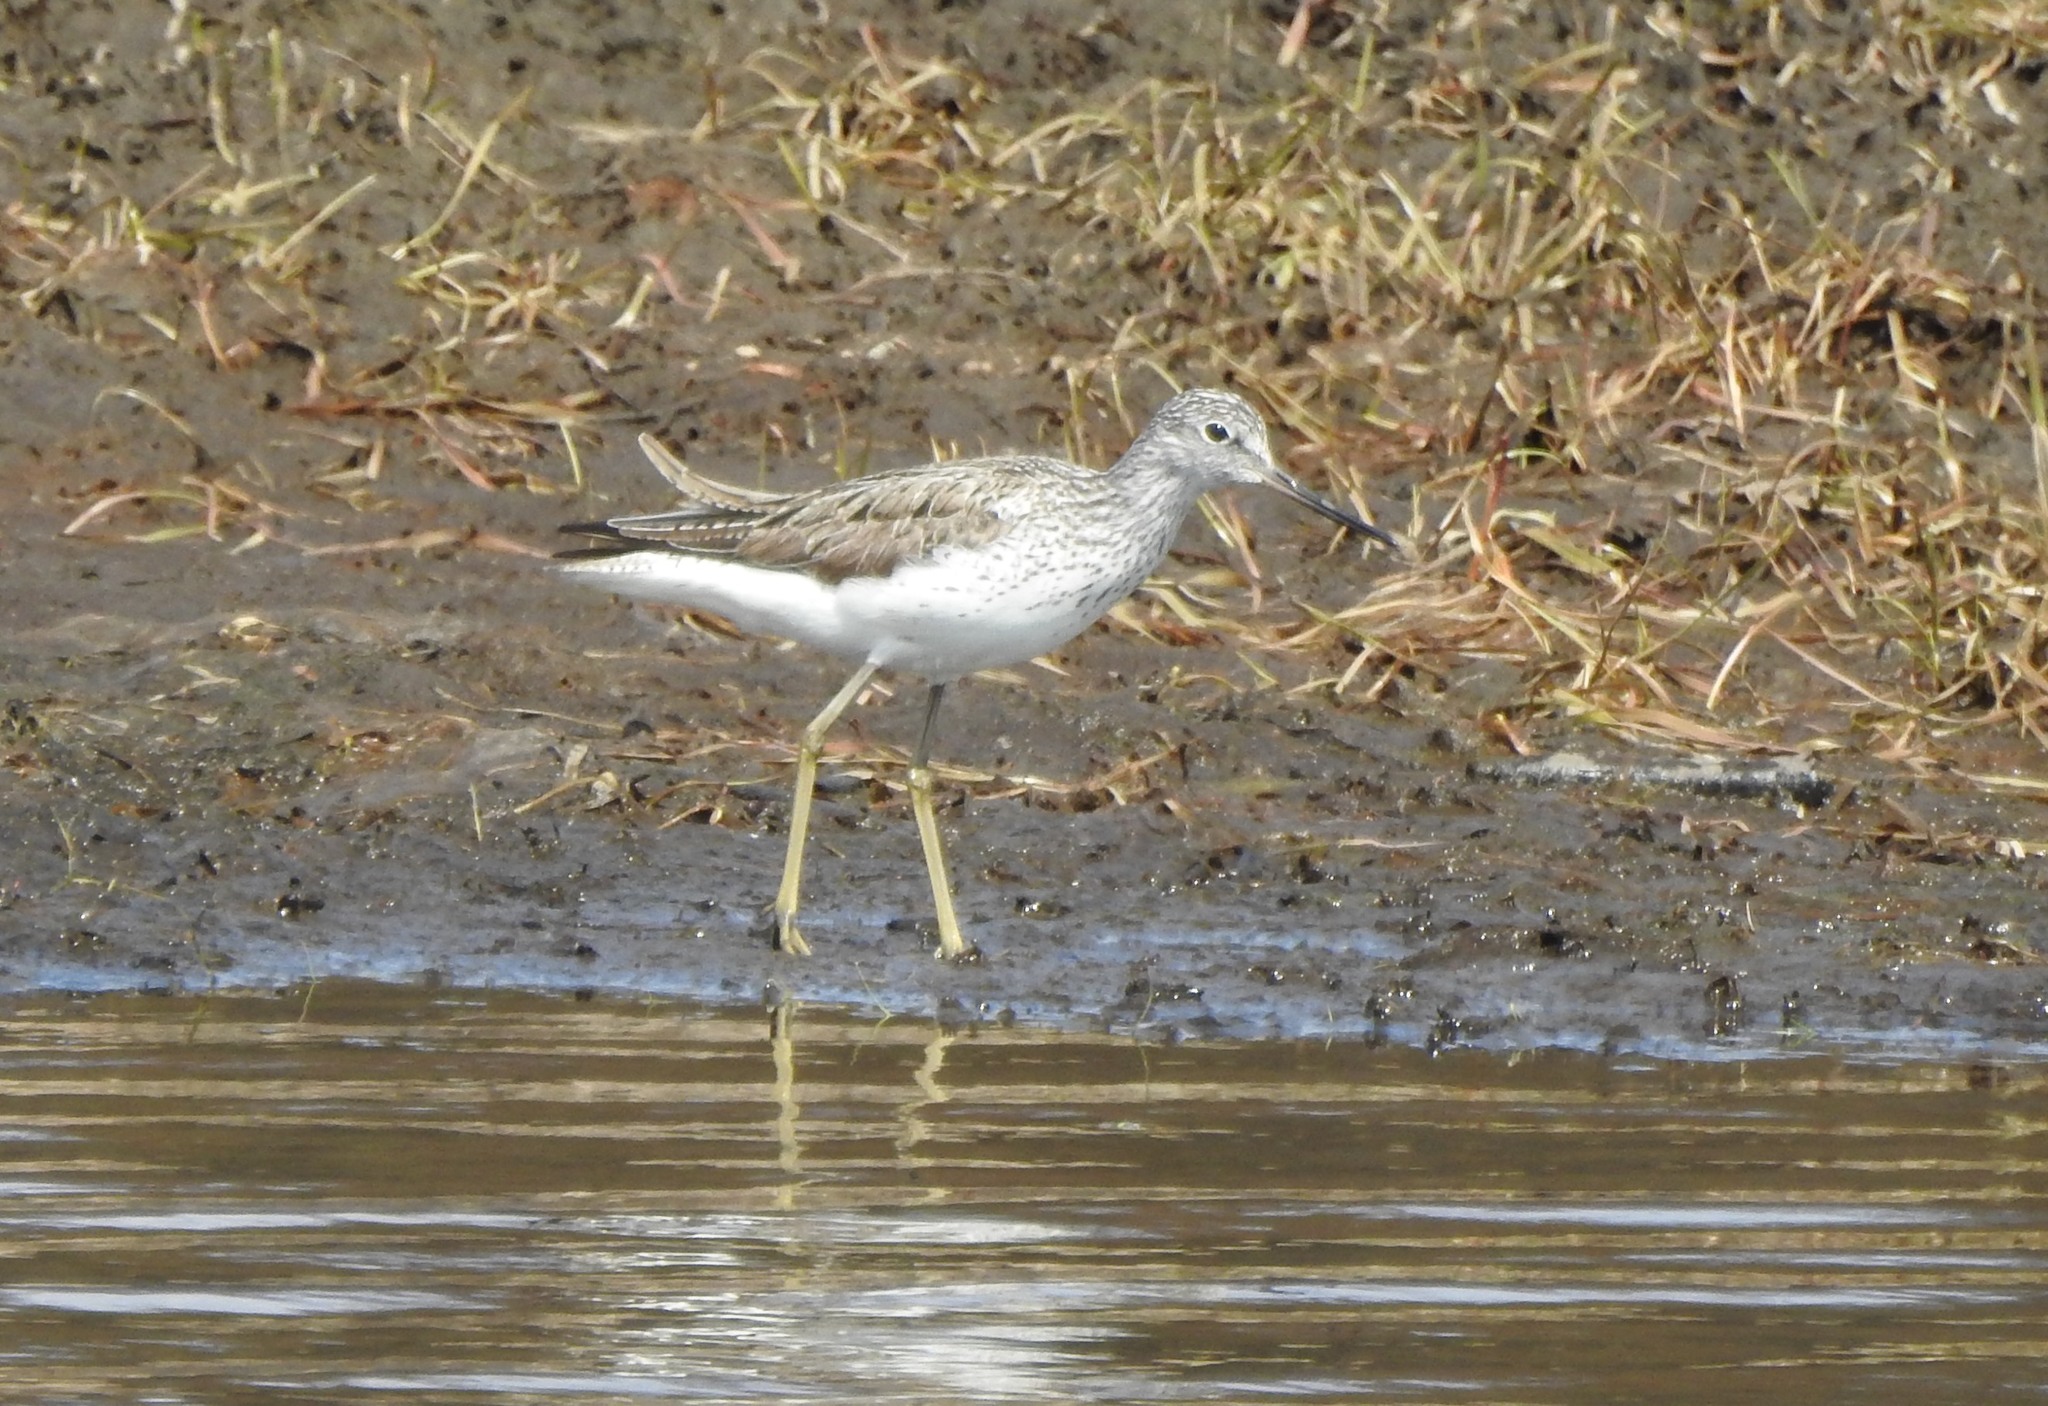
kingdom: Animalia
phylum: Chordata
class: Aves
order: Charadriiformes
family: Scolopacidae
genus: Tringa
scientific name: Tringa nebularia
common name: Common greenshank
